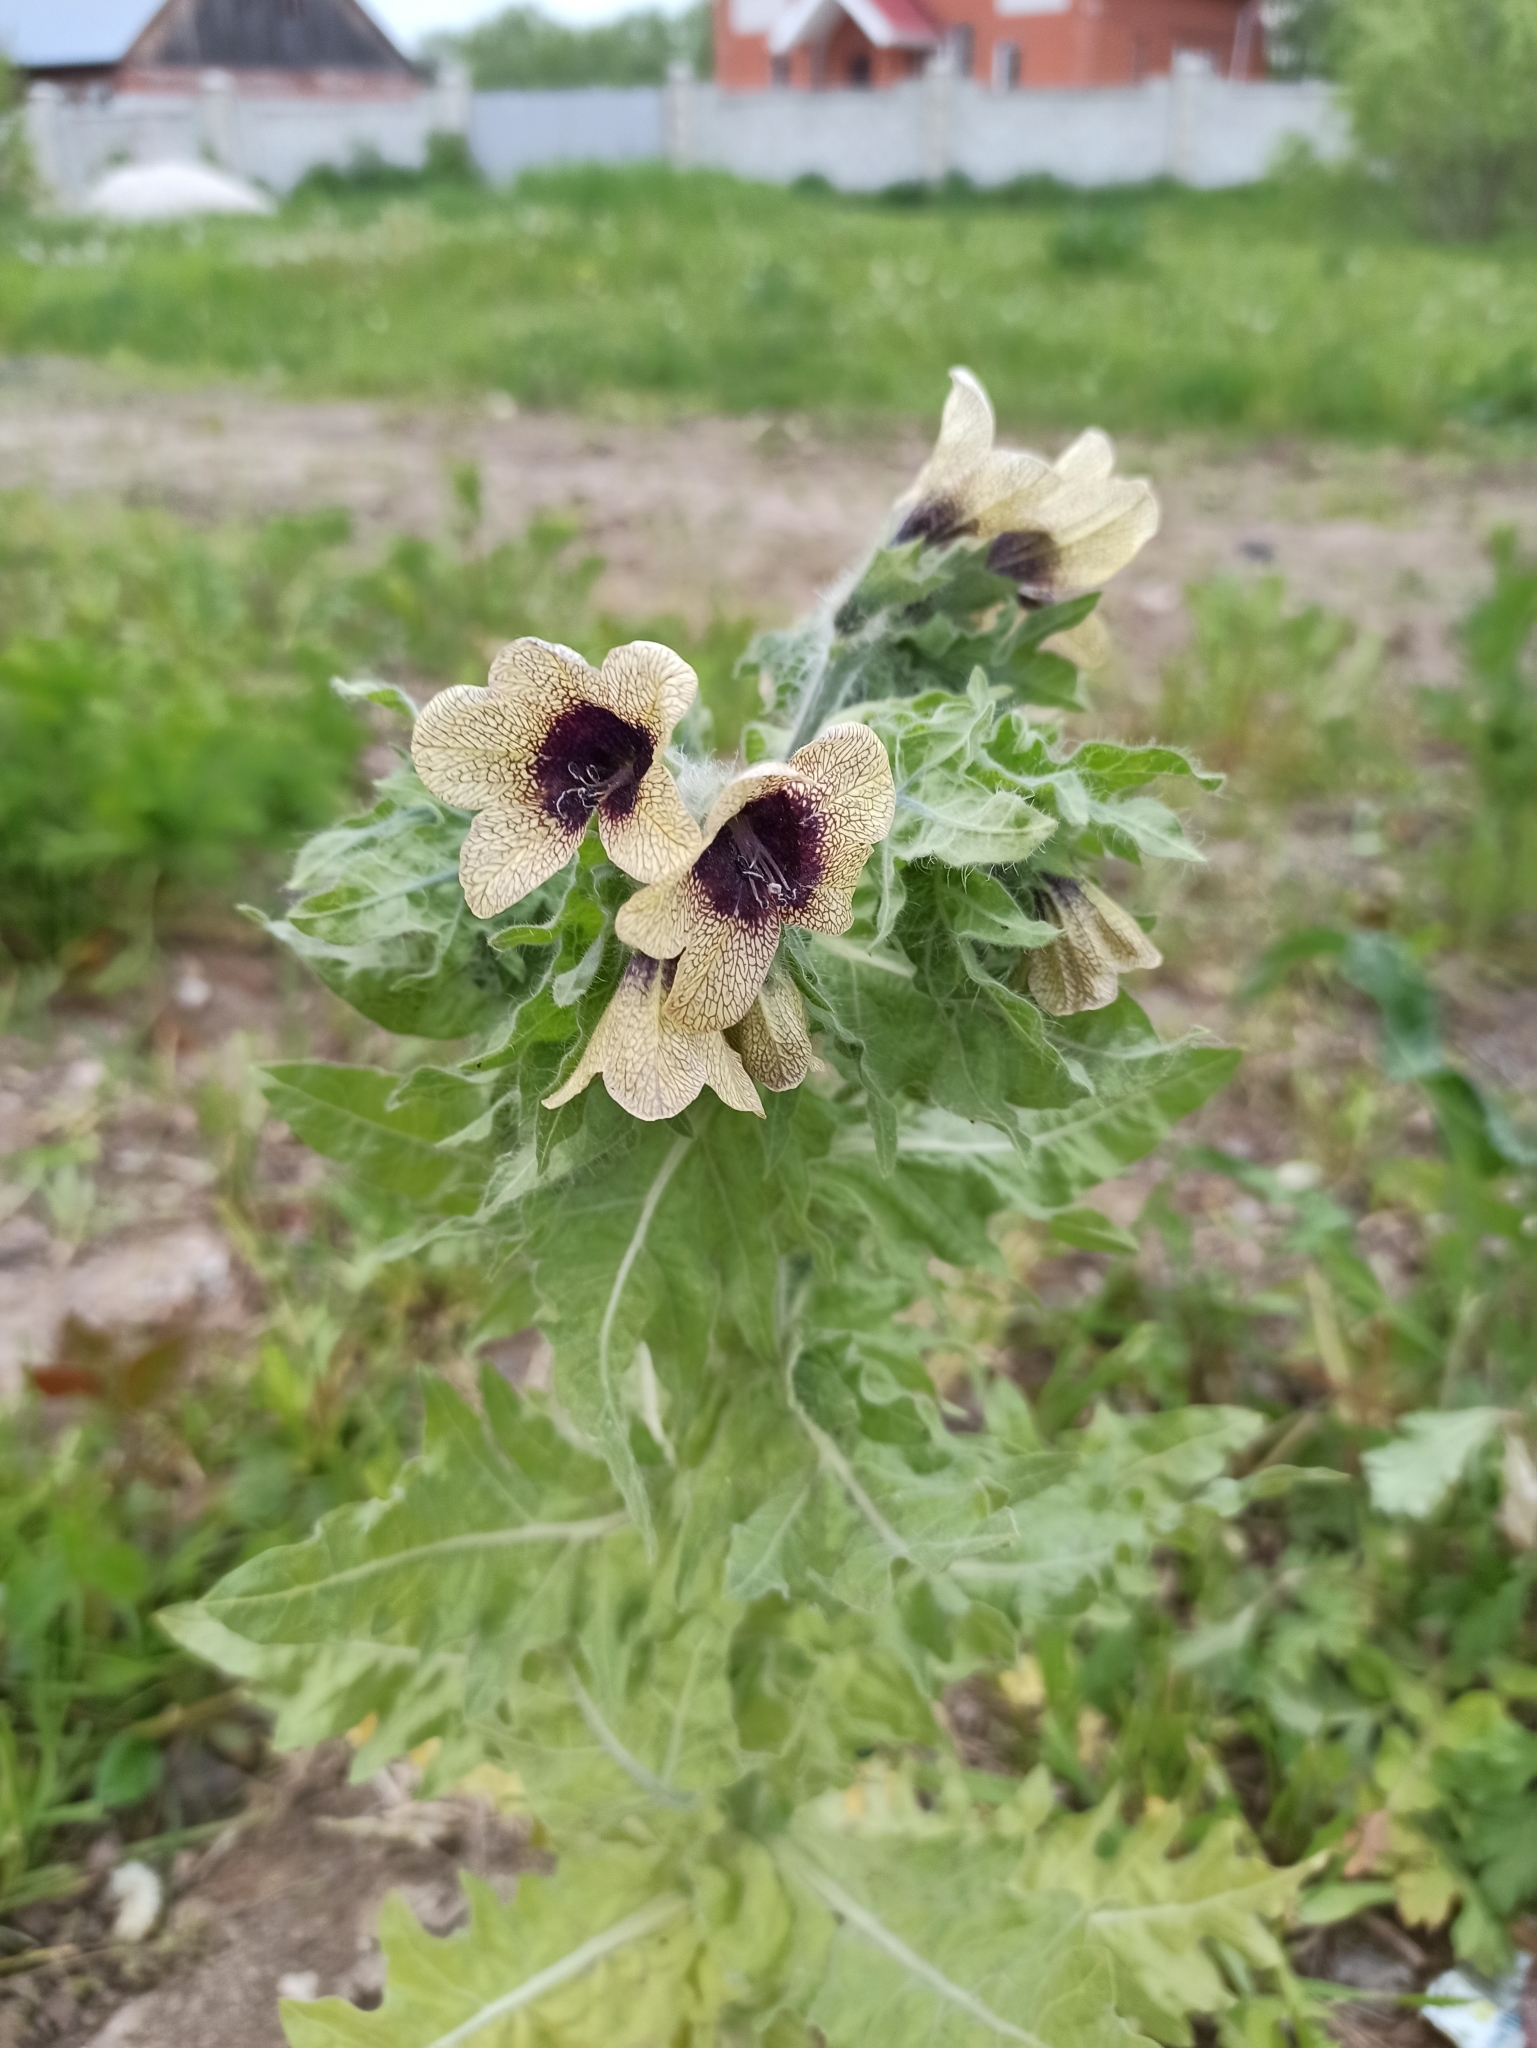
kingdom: Plantae
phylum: Tracheophyta
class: Magnoliopsida
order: Solanales
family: Solanaceae
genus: Hyoscyamus
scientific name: Hyoscyamus niger
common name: Henbane
